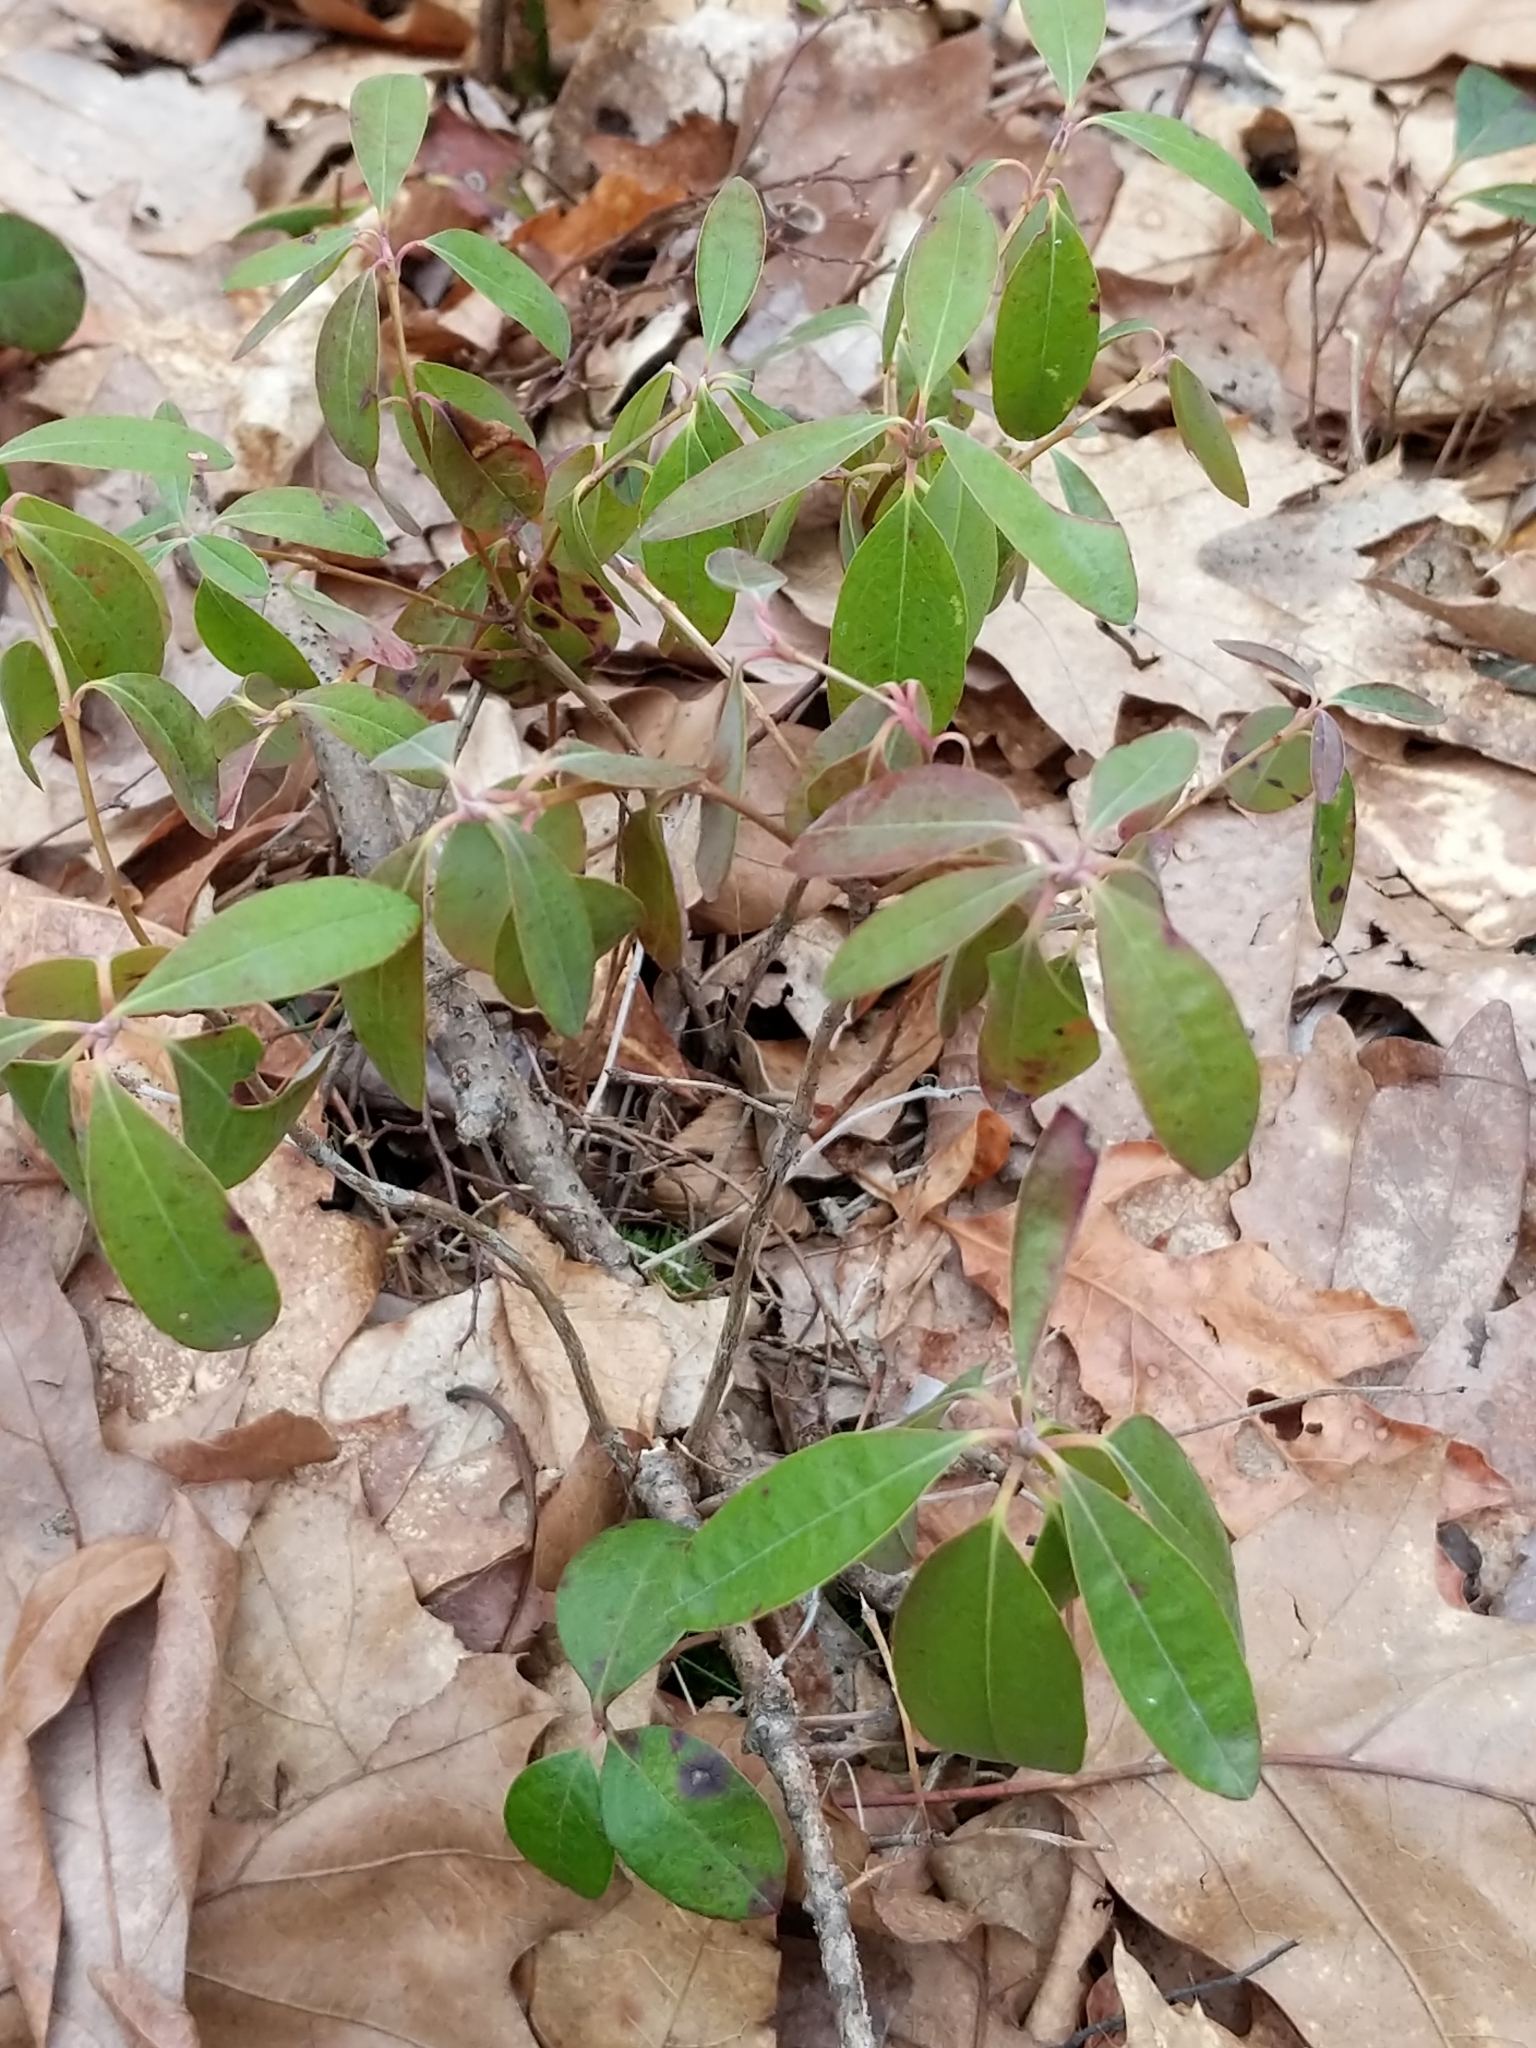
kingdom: Plantae
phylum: Tracheophyta
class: Magnoliopsida
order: Ericales
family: Ericaceae
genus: Kalmia
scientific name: Kalmia angustifolia
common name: Sheep-laurel
